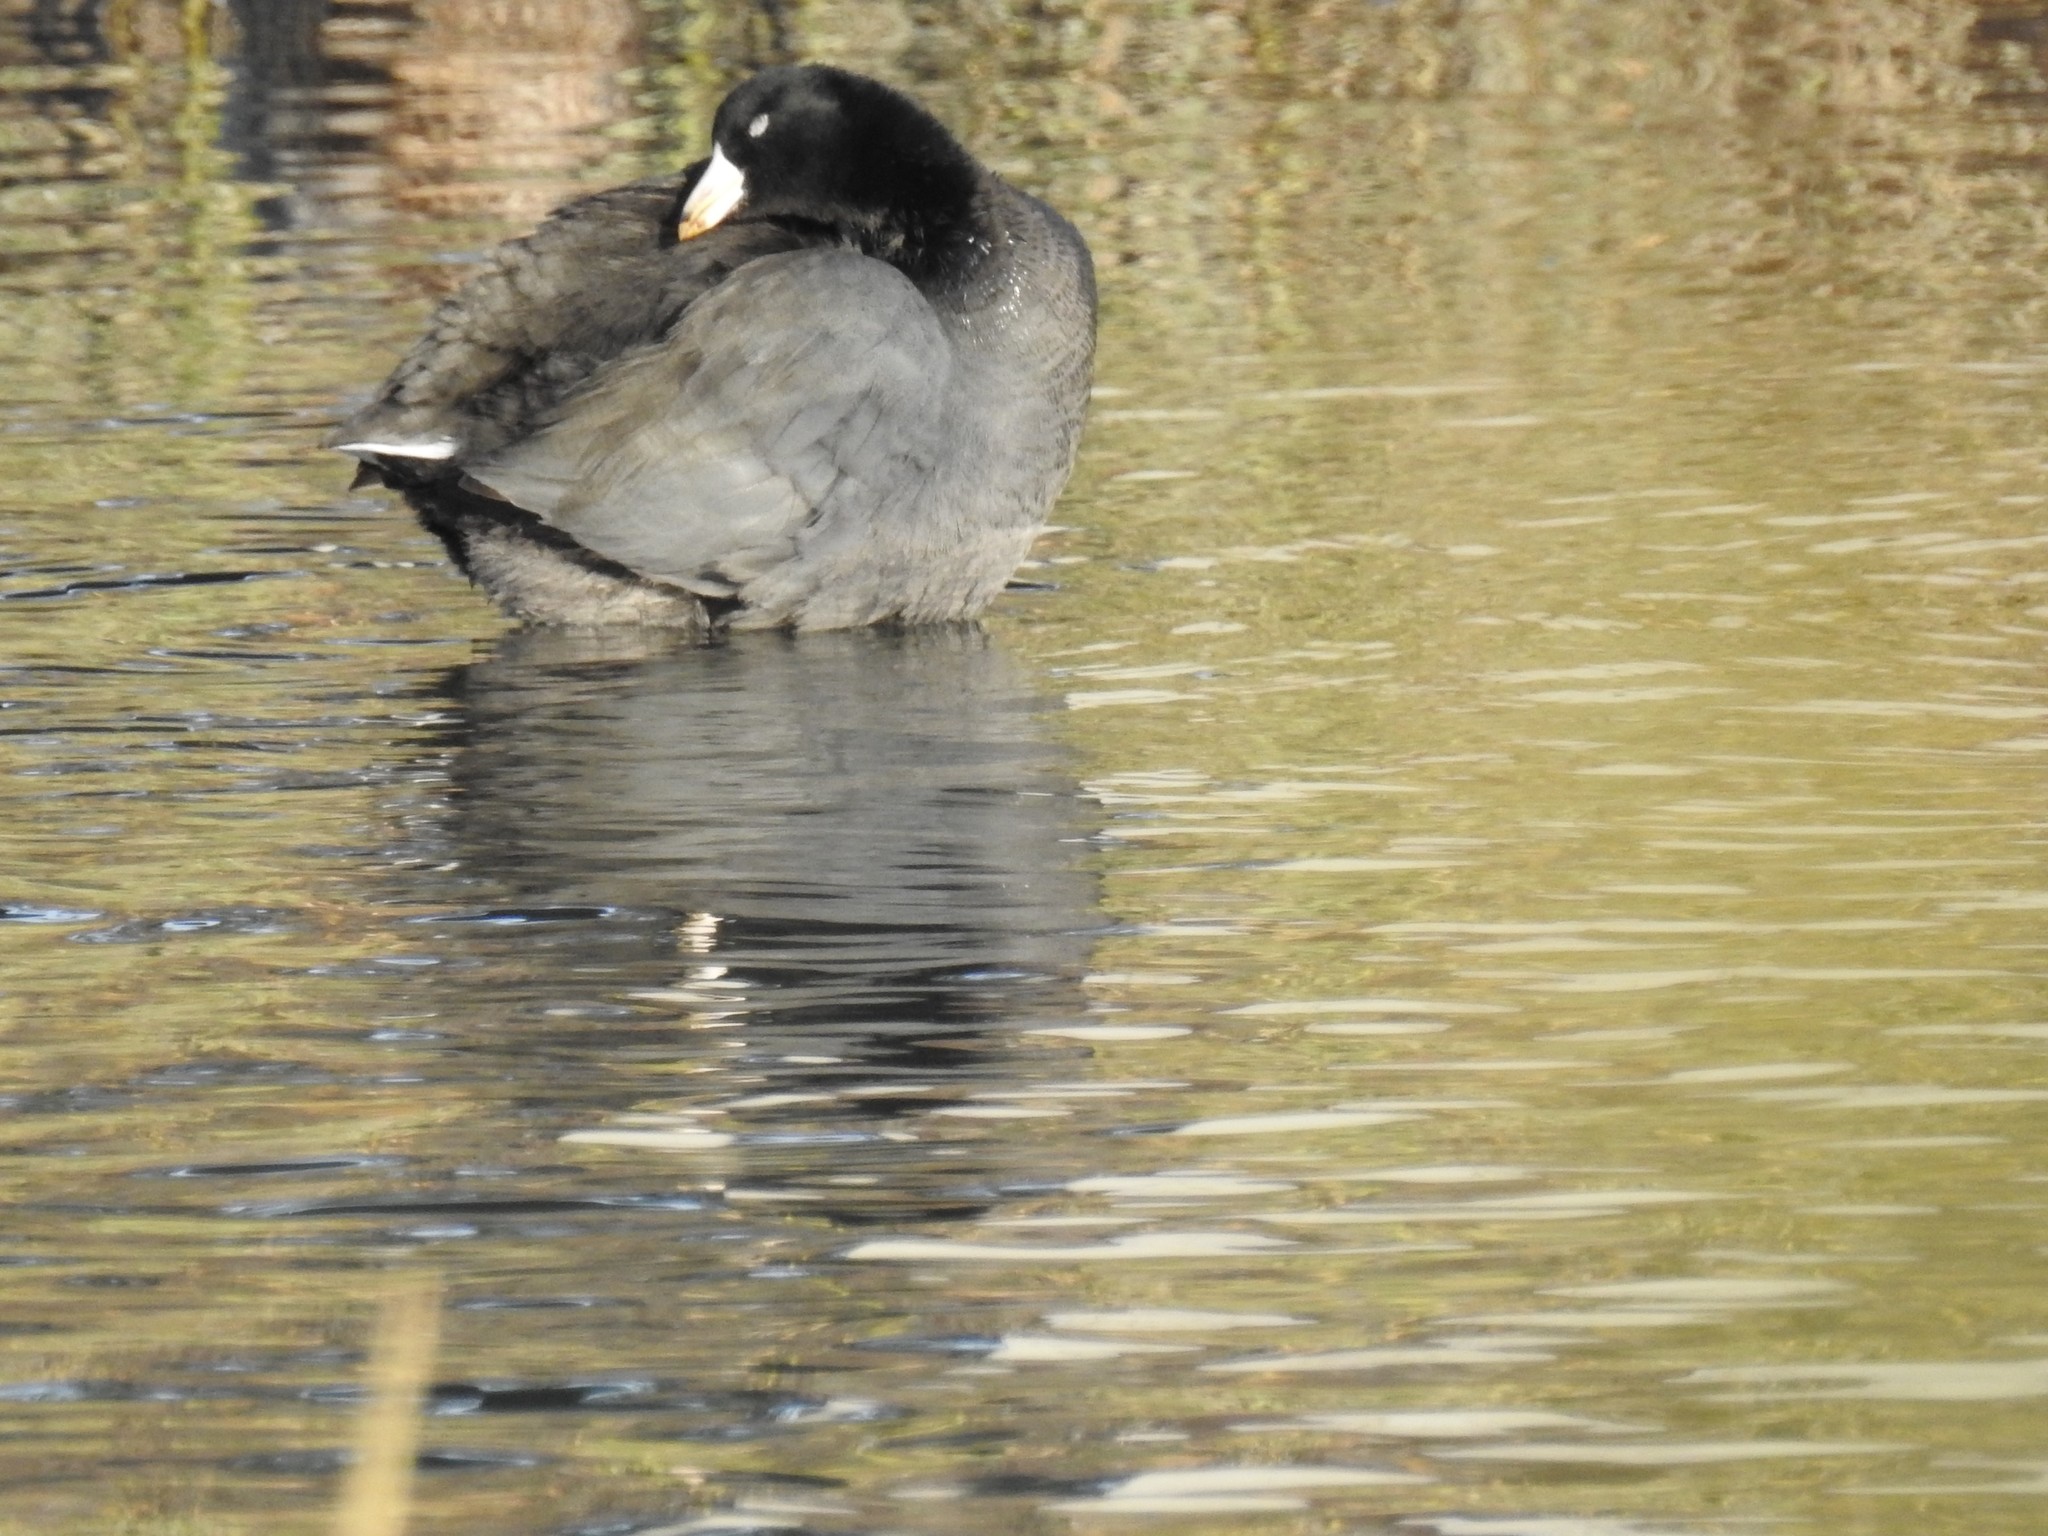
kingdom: Animalia
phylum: Chordata
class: Aves
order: Gruiformes
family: Rallidae
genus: Fulica
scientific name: Fulica americana
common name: American coot
